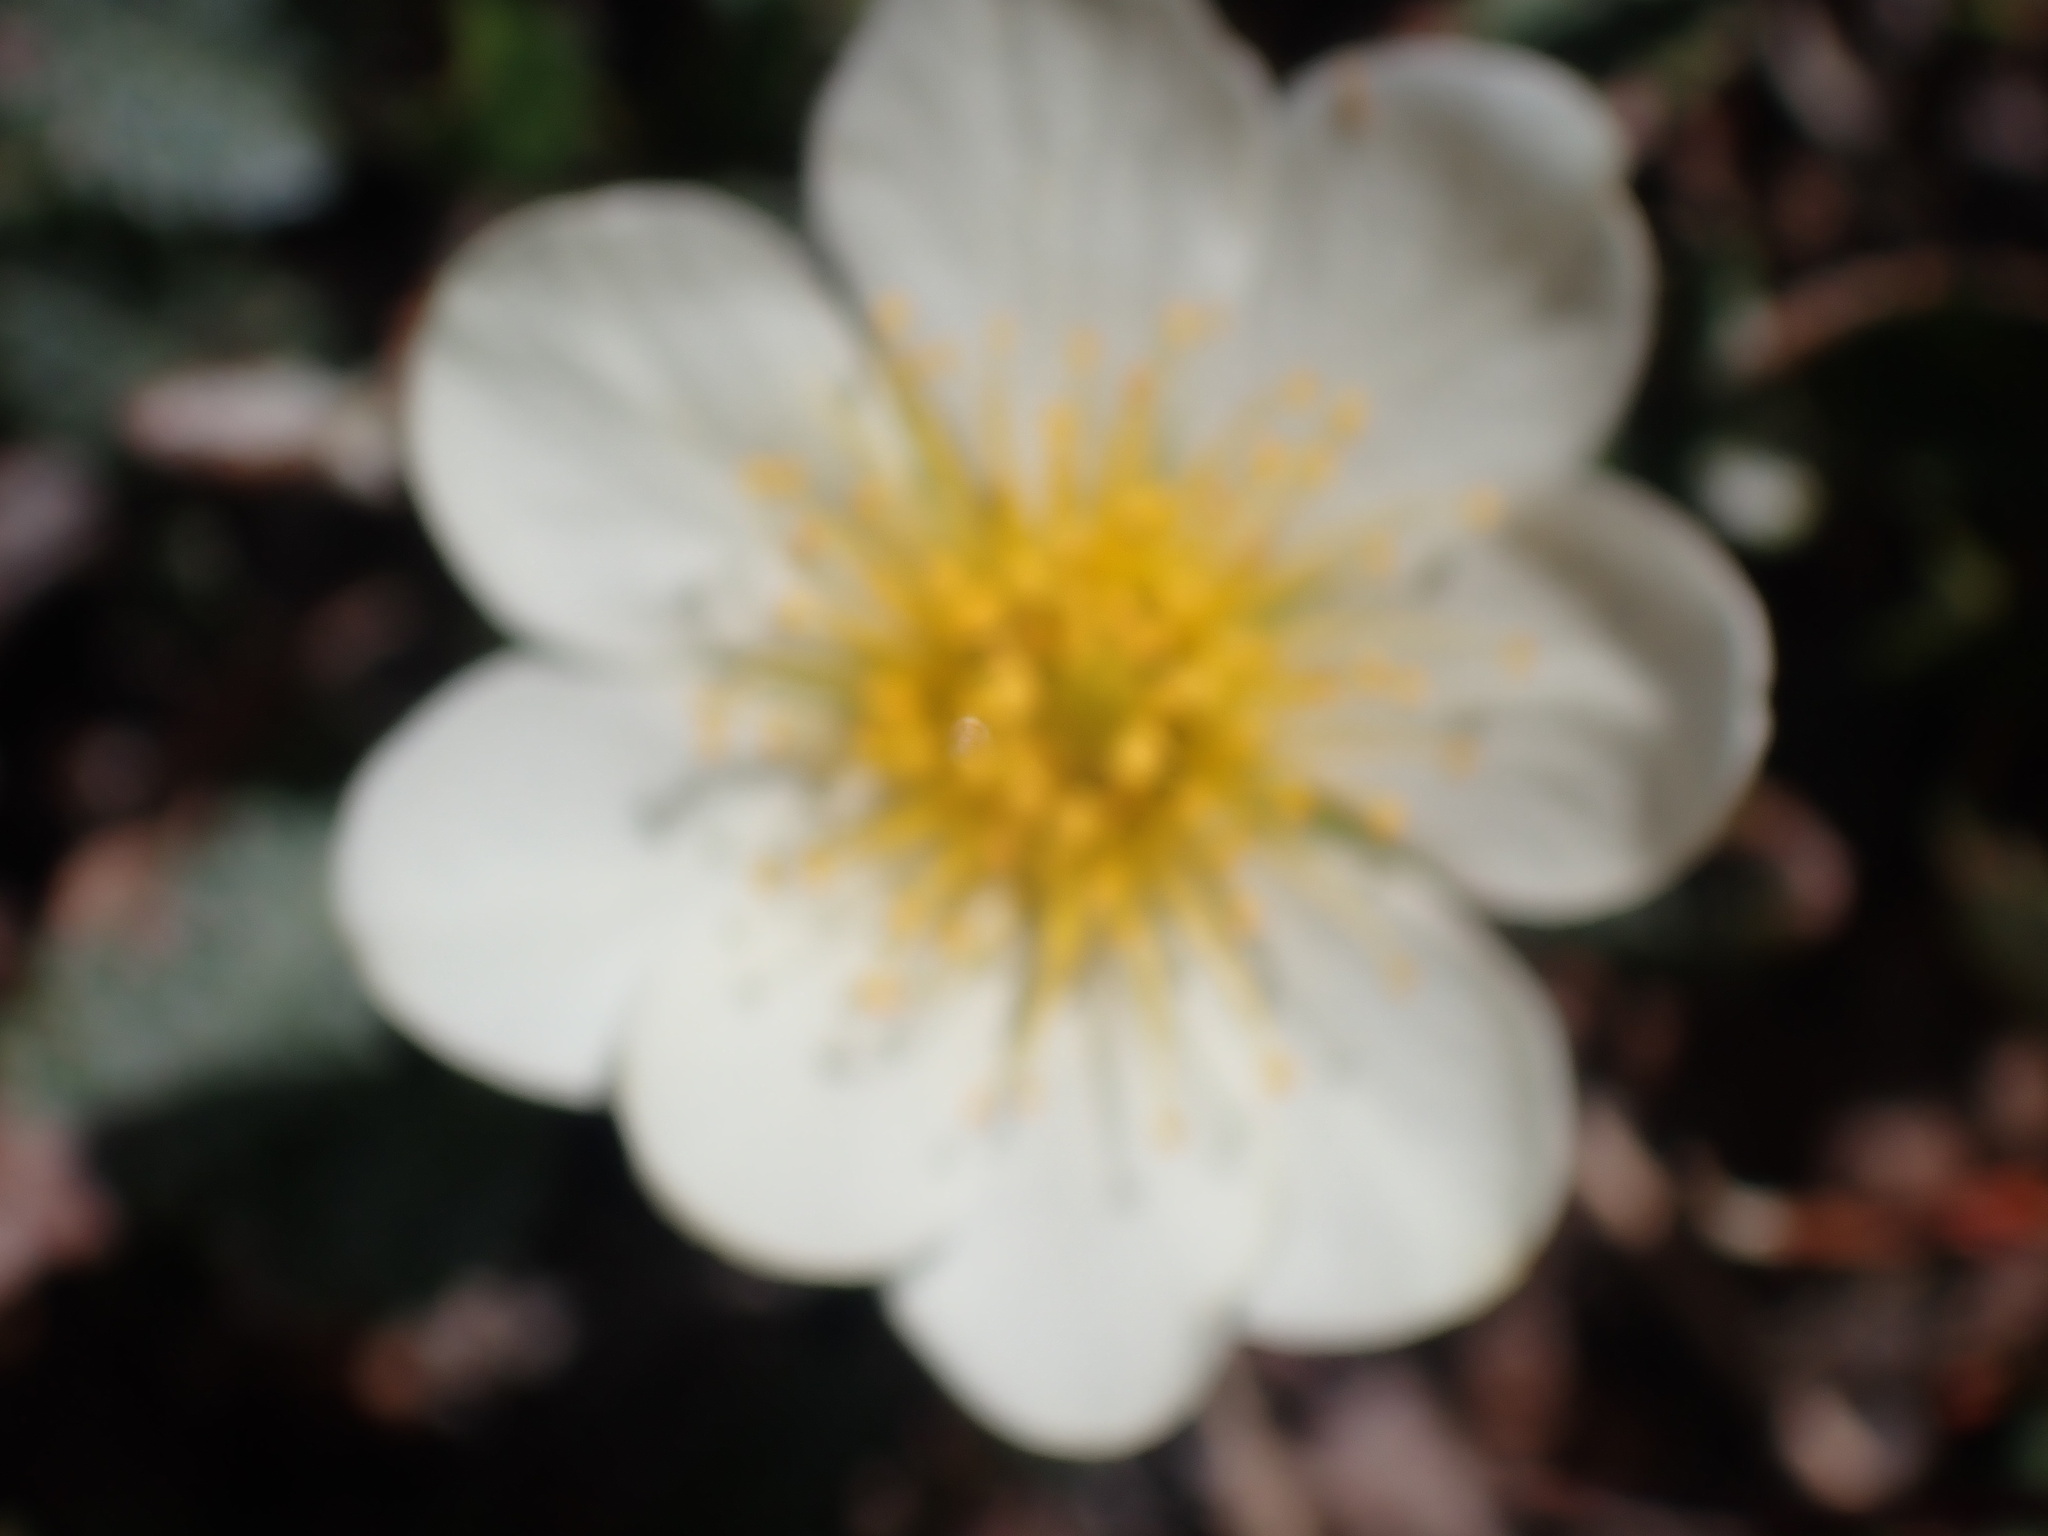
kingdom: Plantae
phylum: Tracheophyta
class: Magnoliopsida
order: Rosales
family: Rosaceae
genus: Dryas
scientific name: Dryas octopetala
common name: Eight-petal mountain-avens
